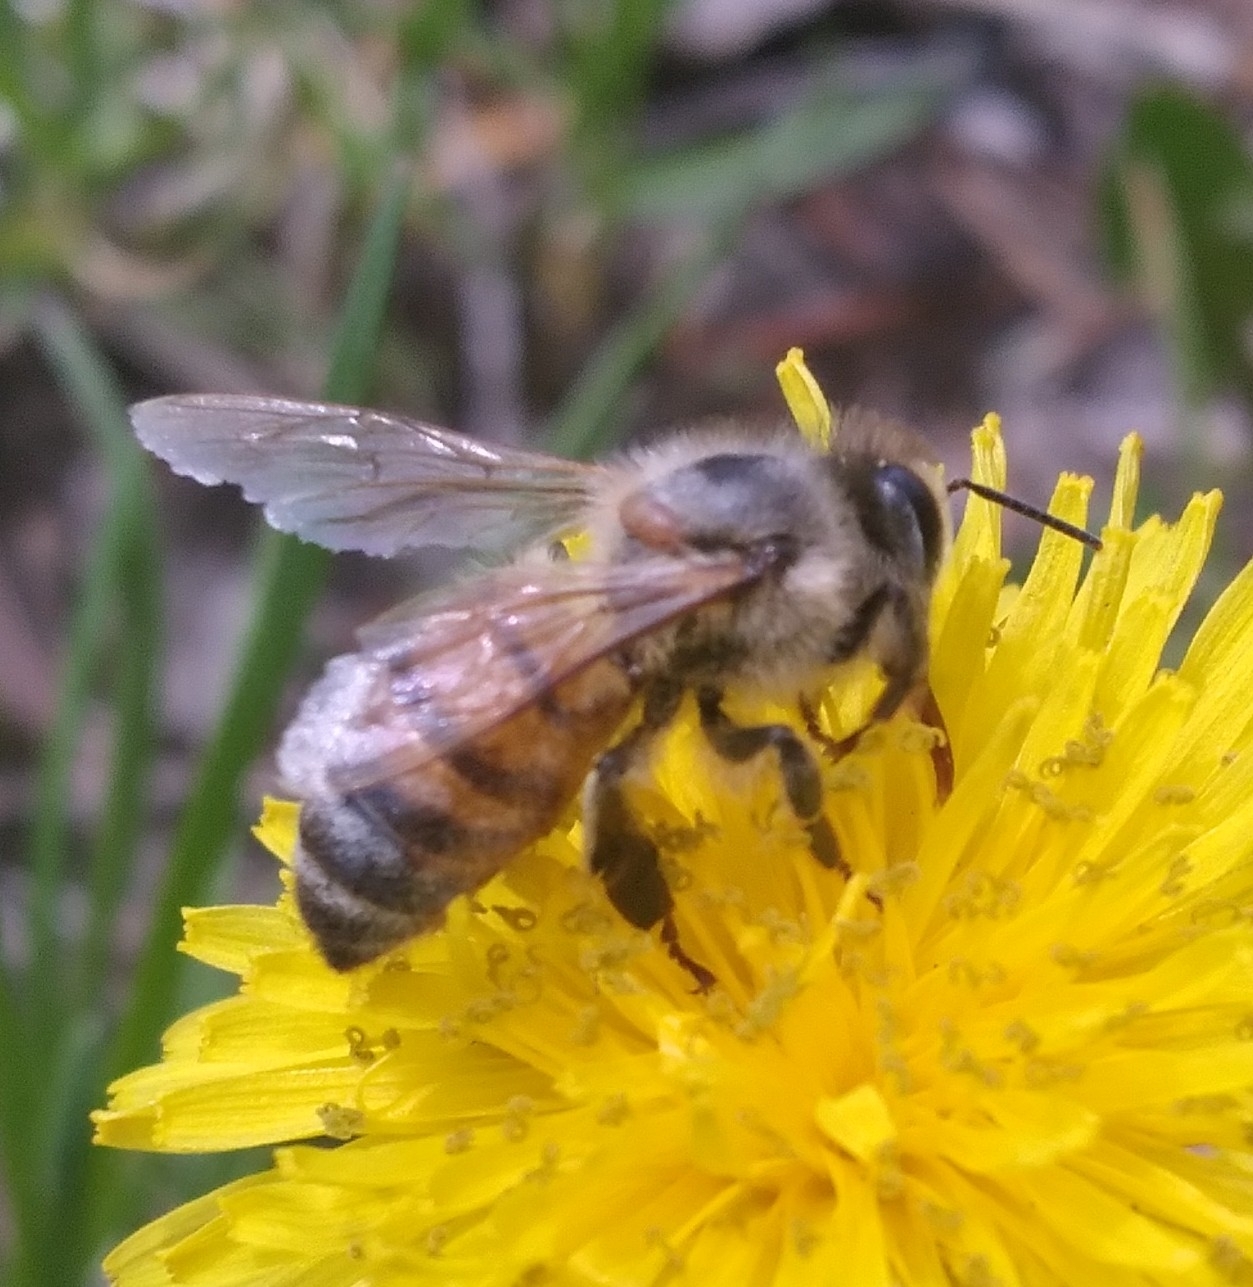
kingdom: Animalia
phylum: Arthropoda
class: Insecta
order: Hymenoptera
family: Apidae
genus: Apis
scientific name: Apis mellifera
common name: Honey bee
